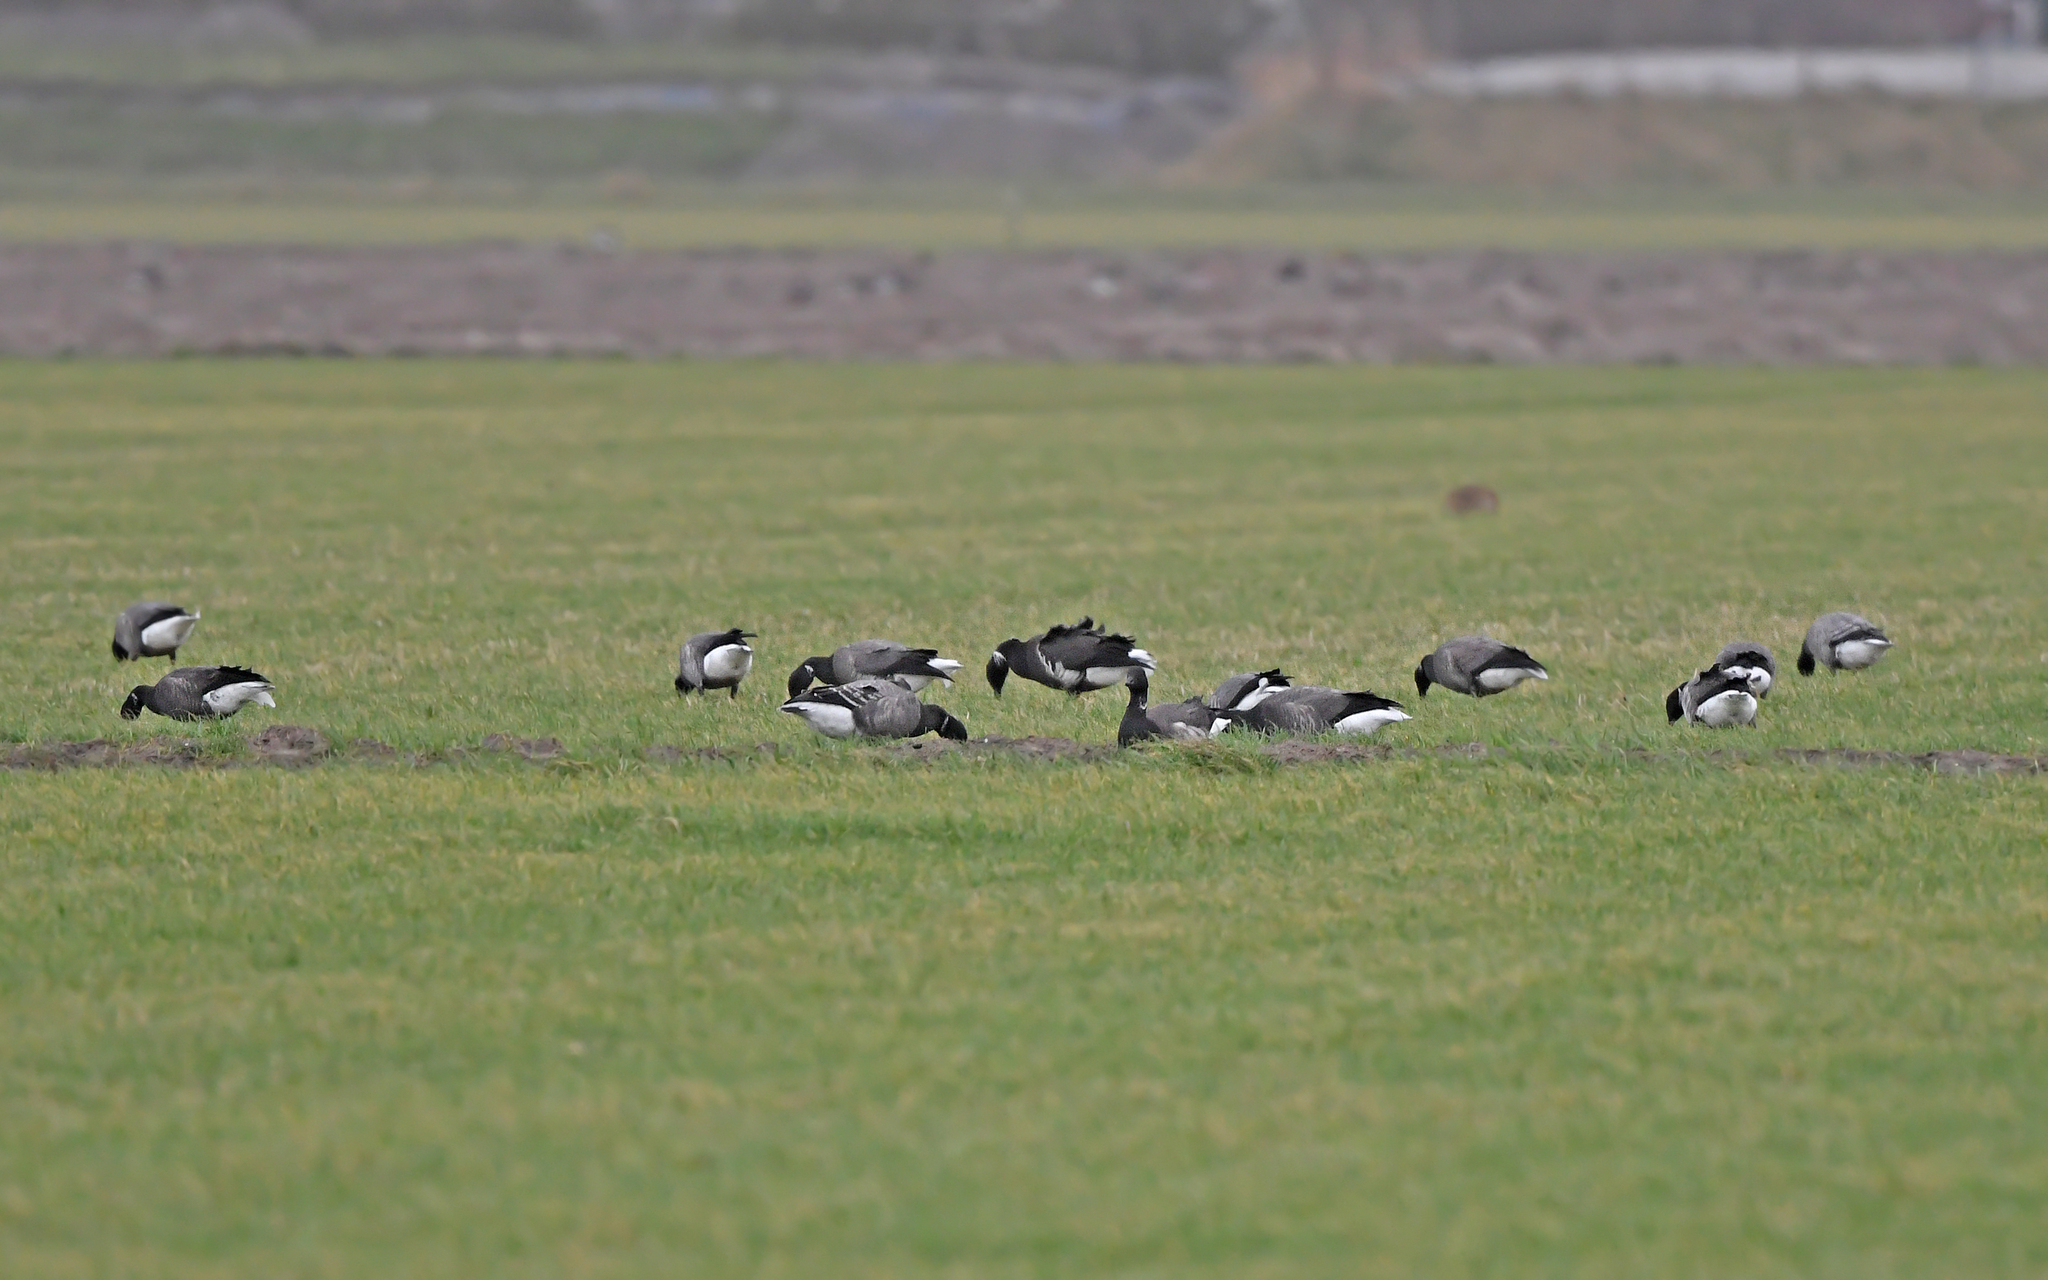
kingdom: Animalia
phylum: Chordata
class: Aves
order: Anseriformes
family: Anatidae
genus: Branta
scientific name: Branta bernicla
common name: Brant goose
